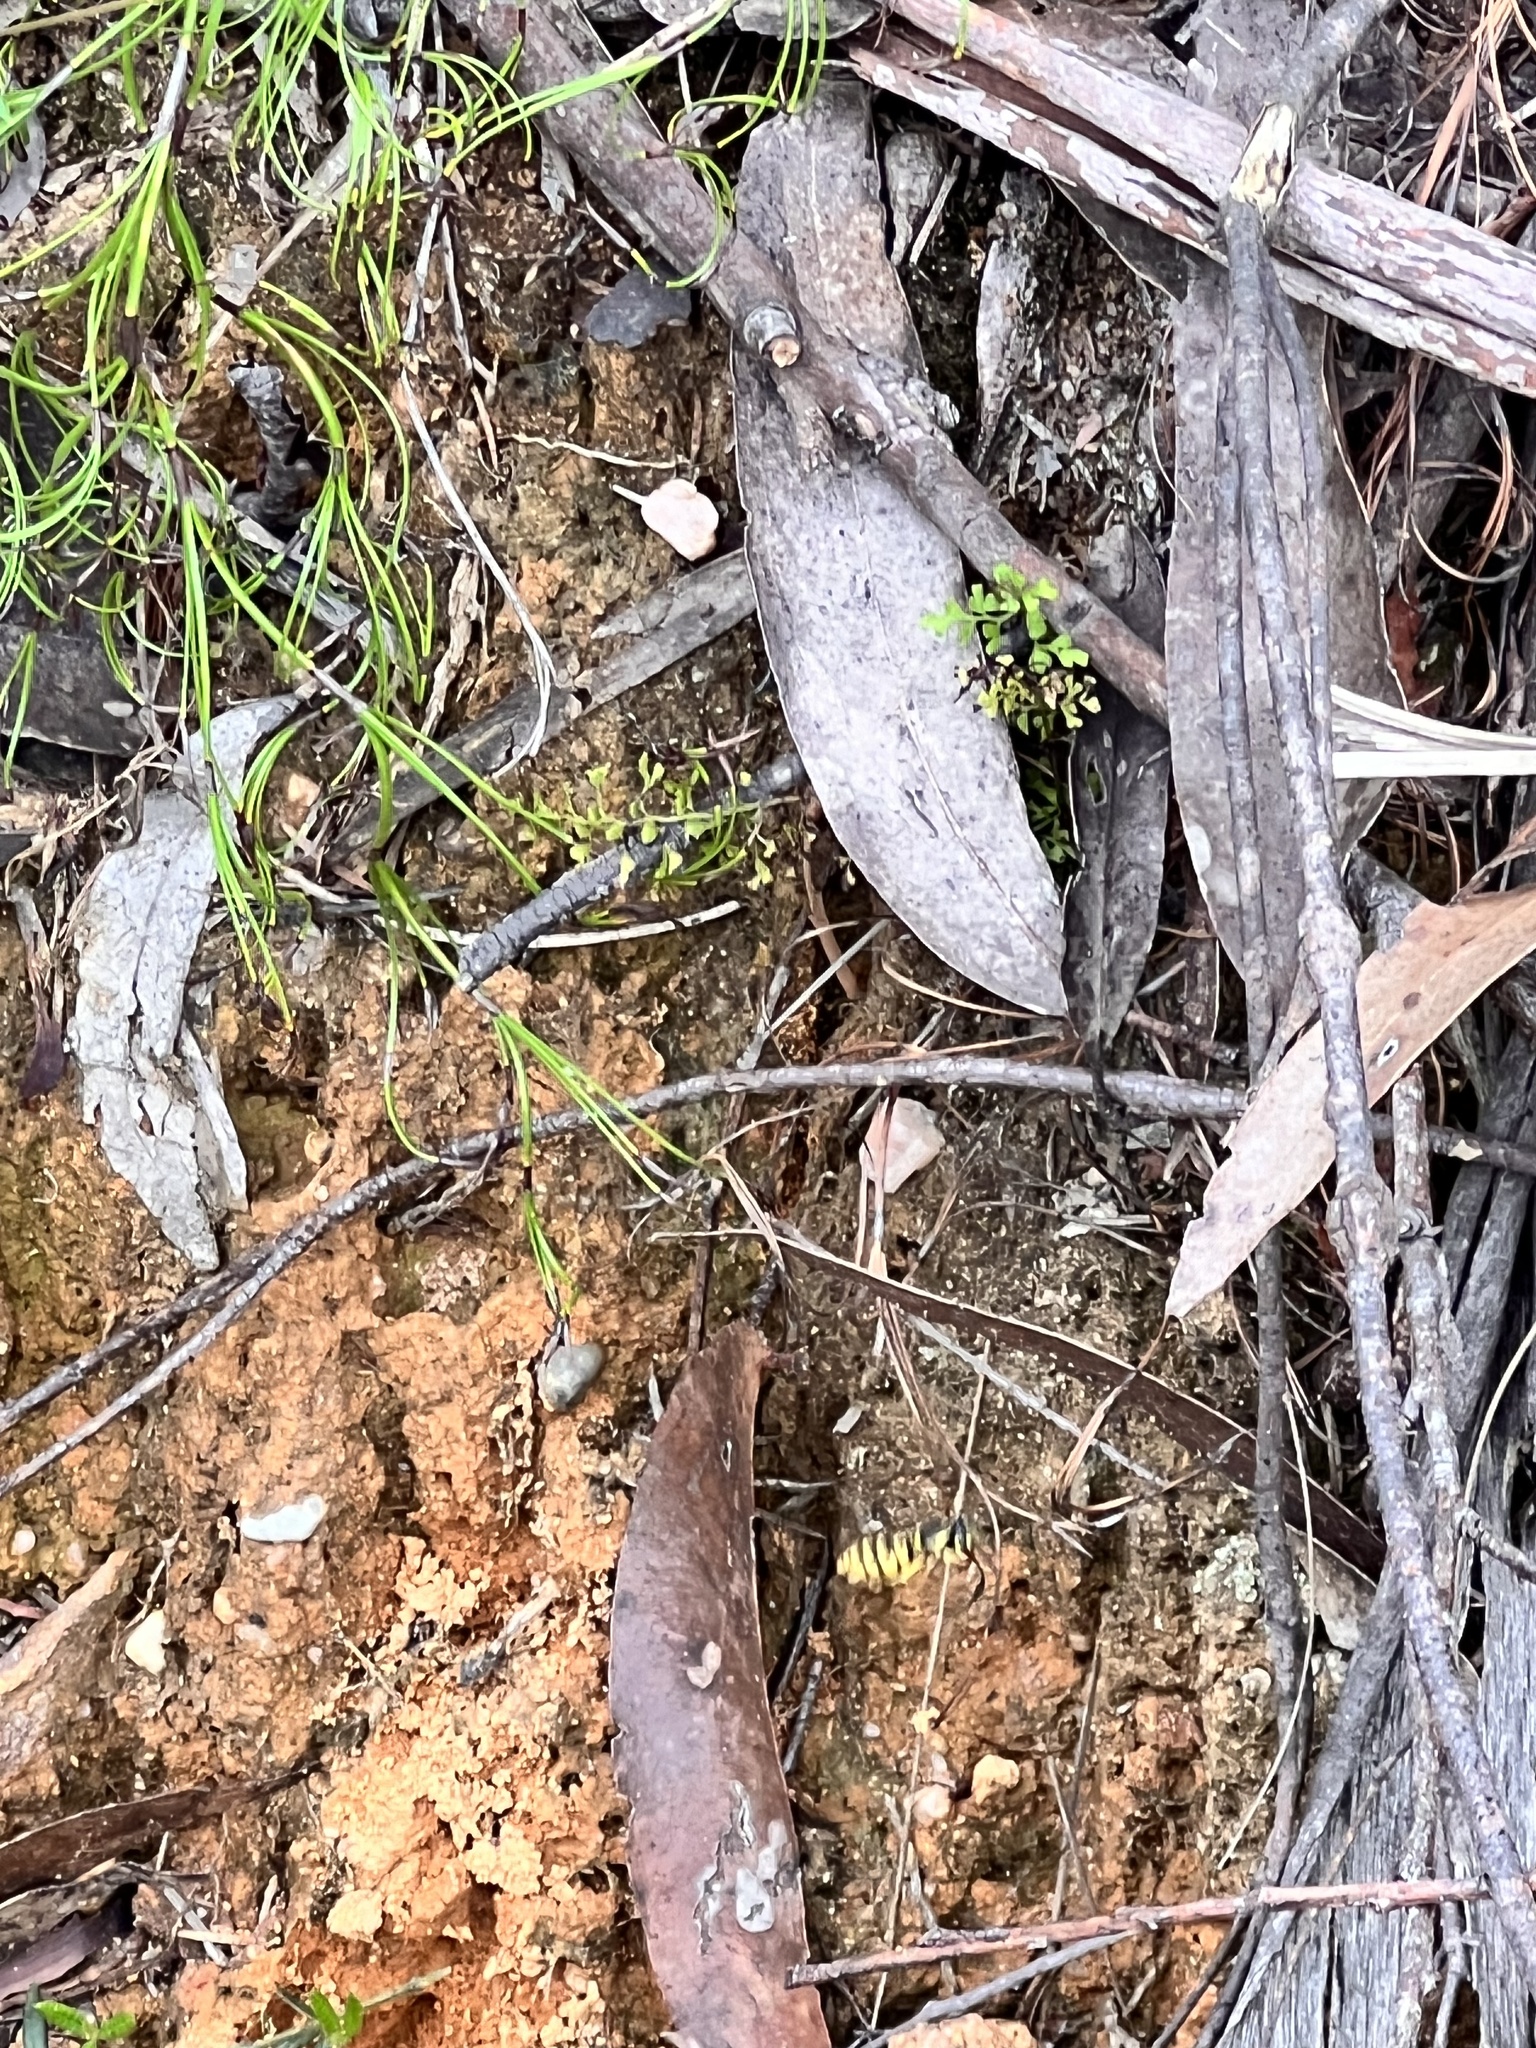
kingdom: Animalia
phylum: Arthropoda
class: Insecta
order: Hymenoptera
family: Vespidae
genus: Vespula
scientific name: Vespula germanica
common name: German wasp
